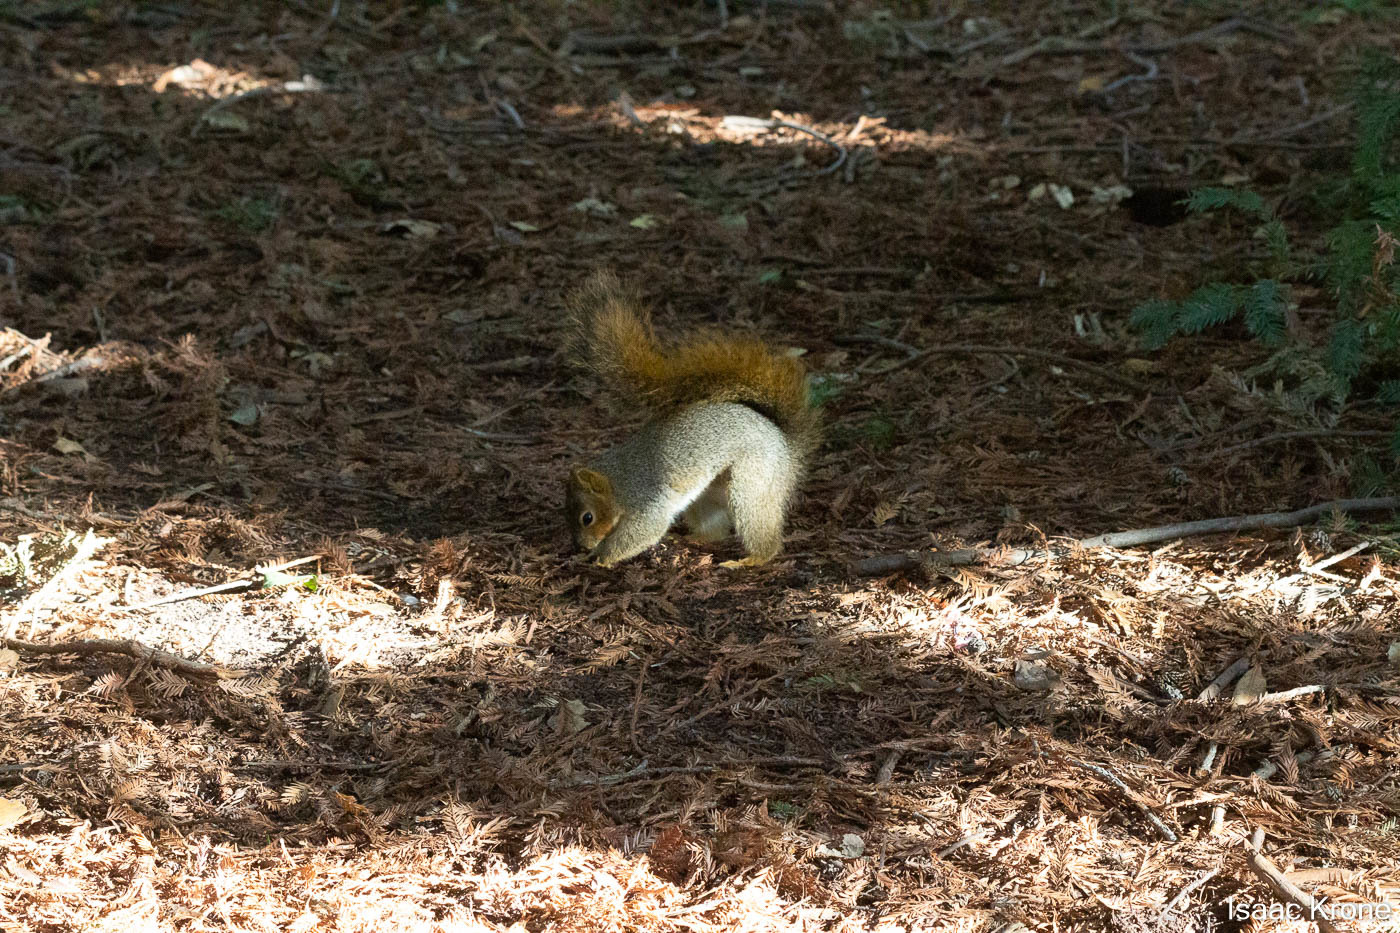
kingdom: Animalia
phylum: Chordata
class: Mammalia
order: Rodentia
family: Sciuridae
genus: Sciurus
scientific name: Sciurus niger
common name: Fox squirrel
